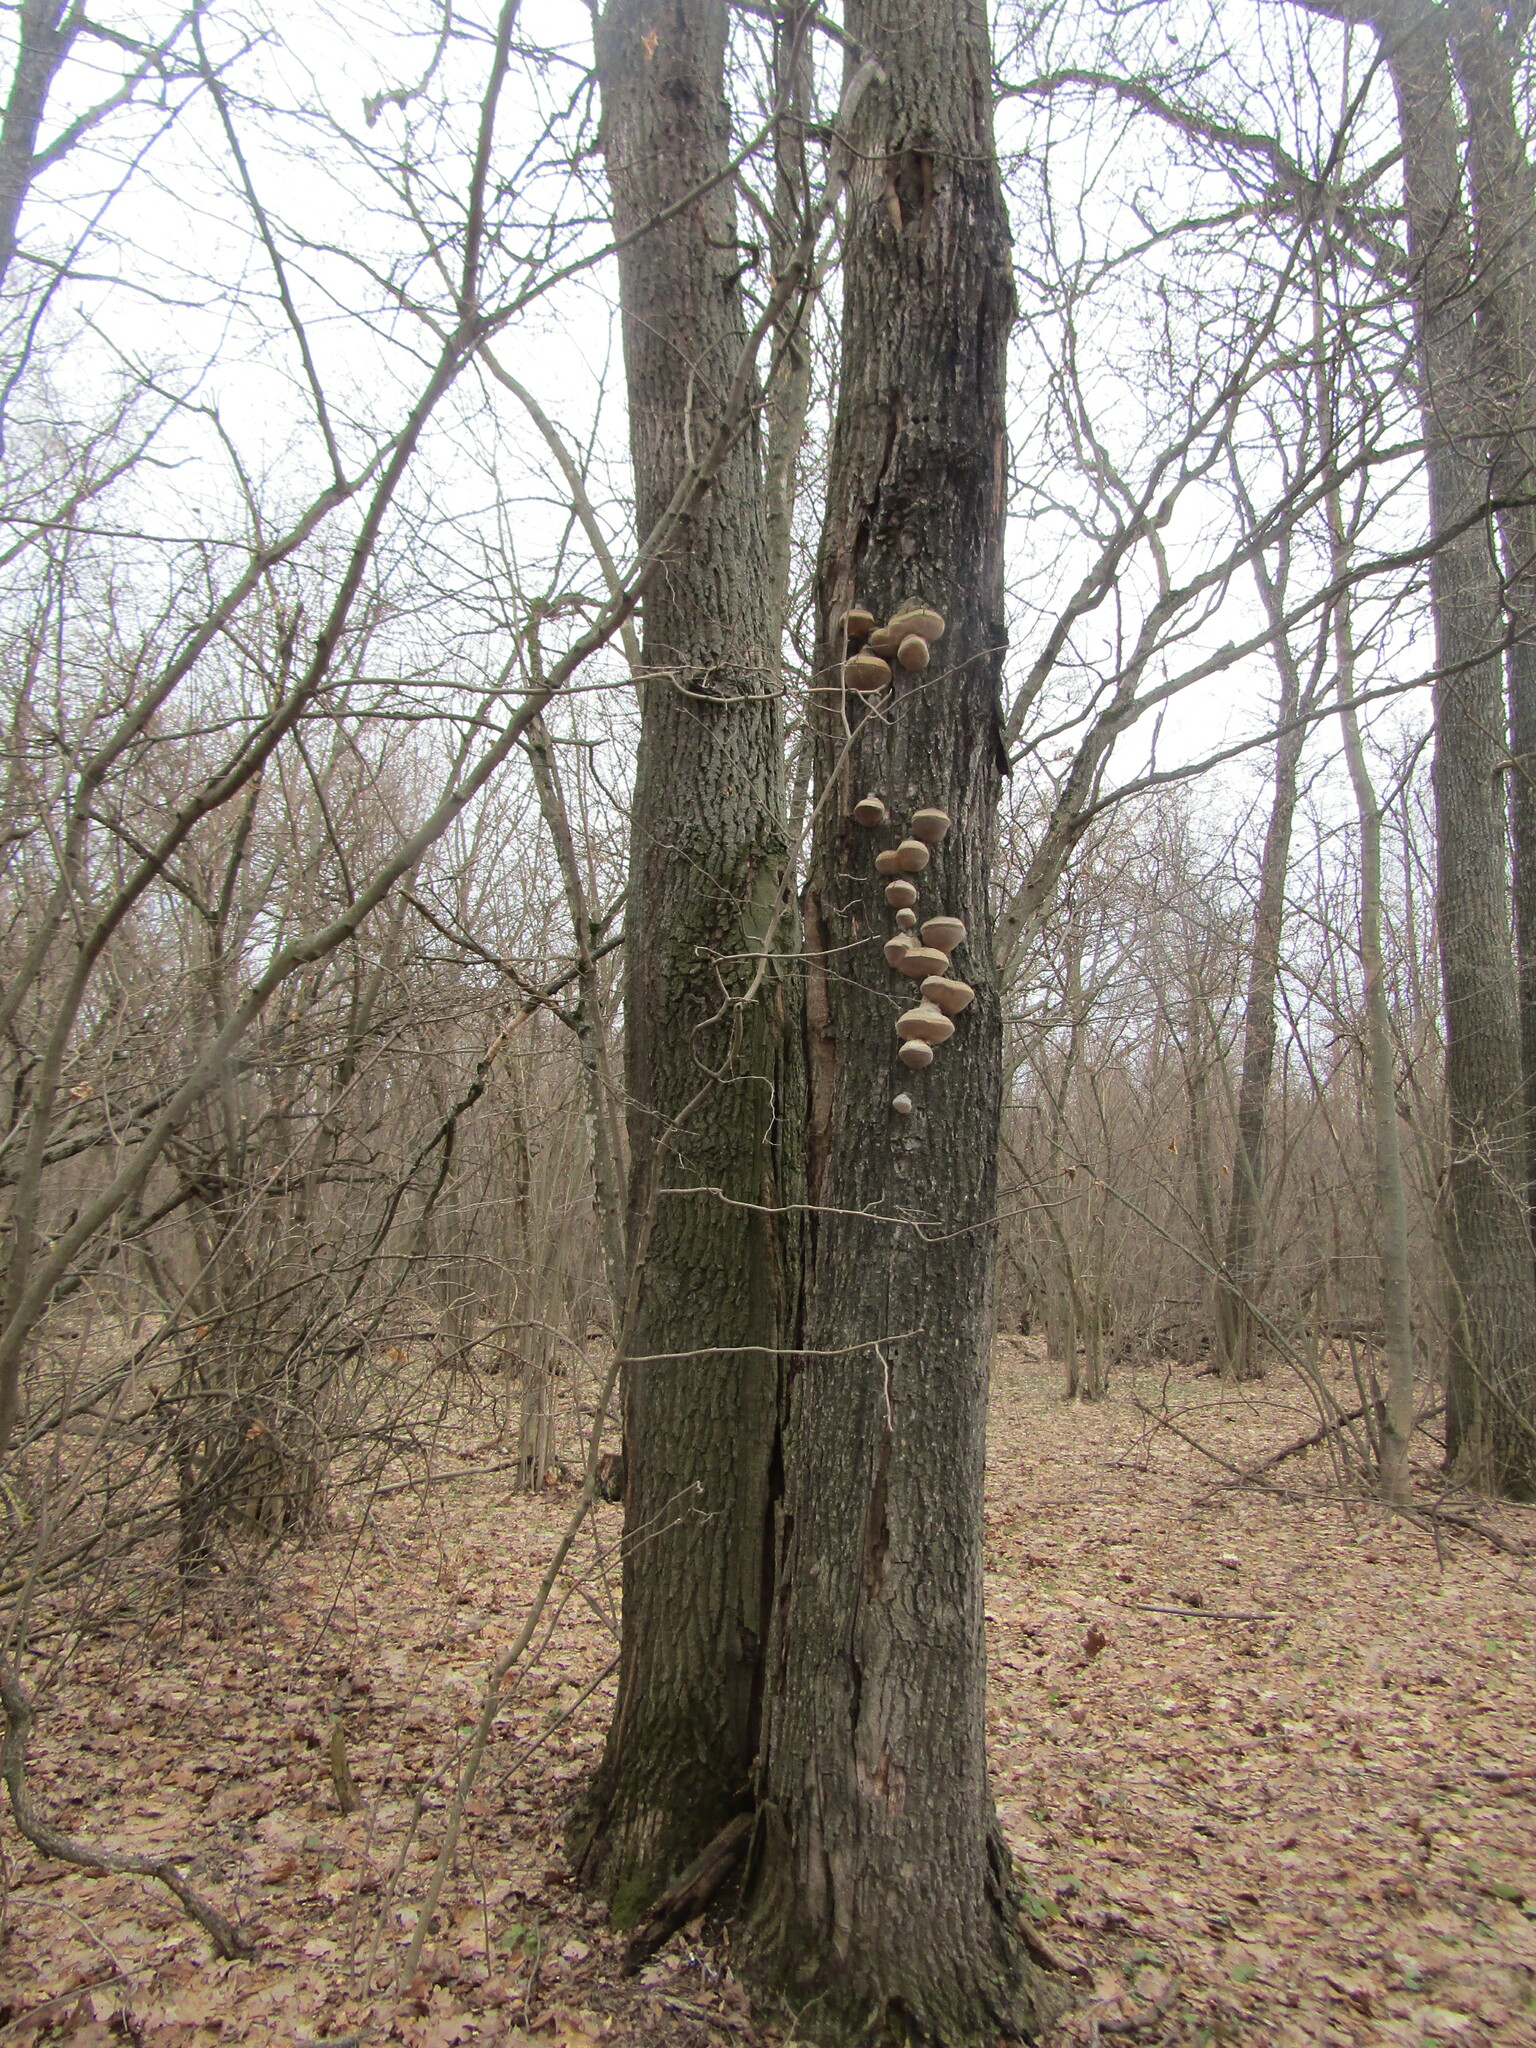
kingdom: Plantae
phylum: Tracheophyta
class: Magnoliopsida
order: Fagales
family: Fagaceae
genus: Quercus
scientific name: Quercus robur
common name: Pedunculate oak
